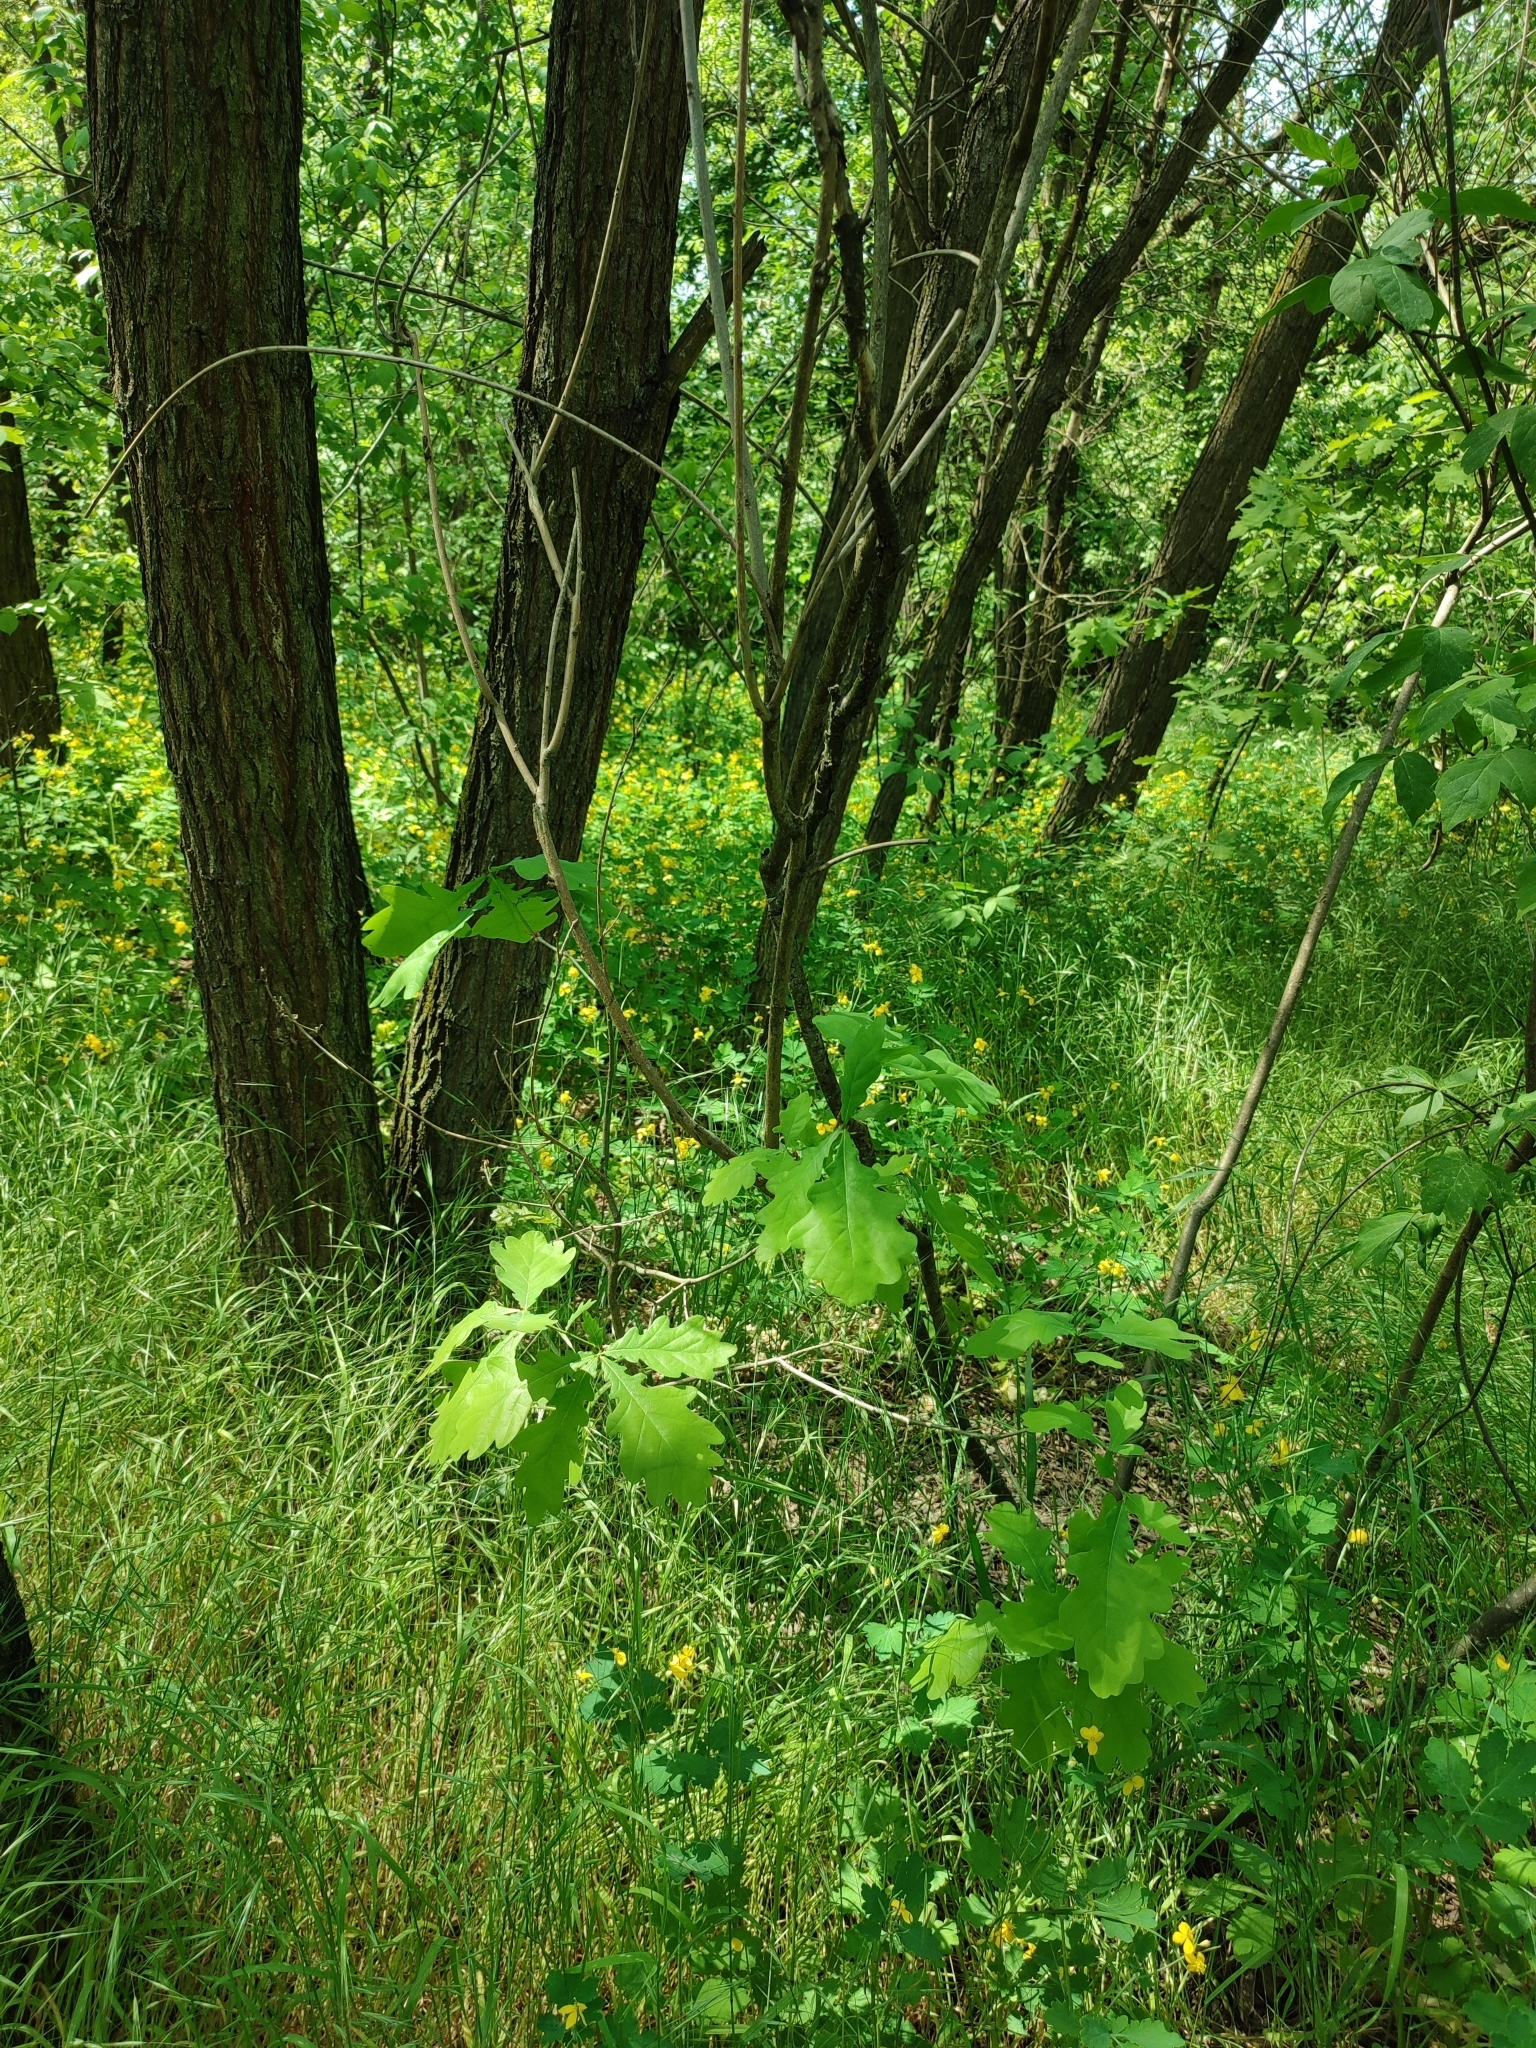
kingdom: Plantae
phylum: Tracheophyta
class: Magnoliopsida
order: Fagales
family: Fagaceae
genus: Quercus
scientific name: Quercus robur
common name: Pedunculate oak
